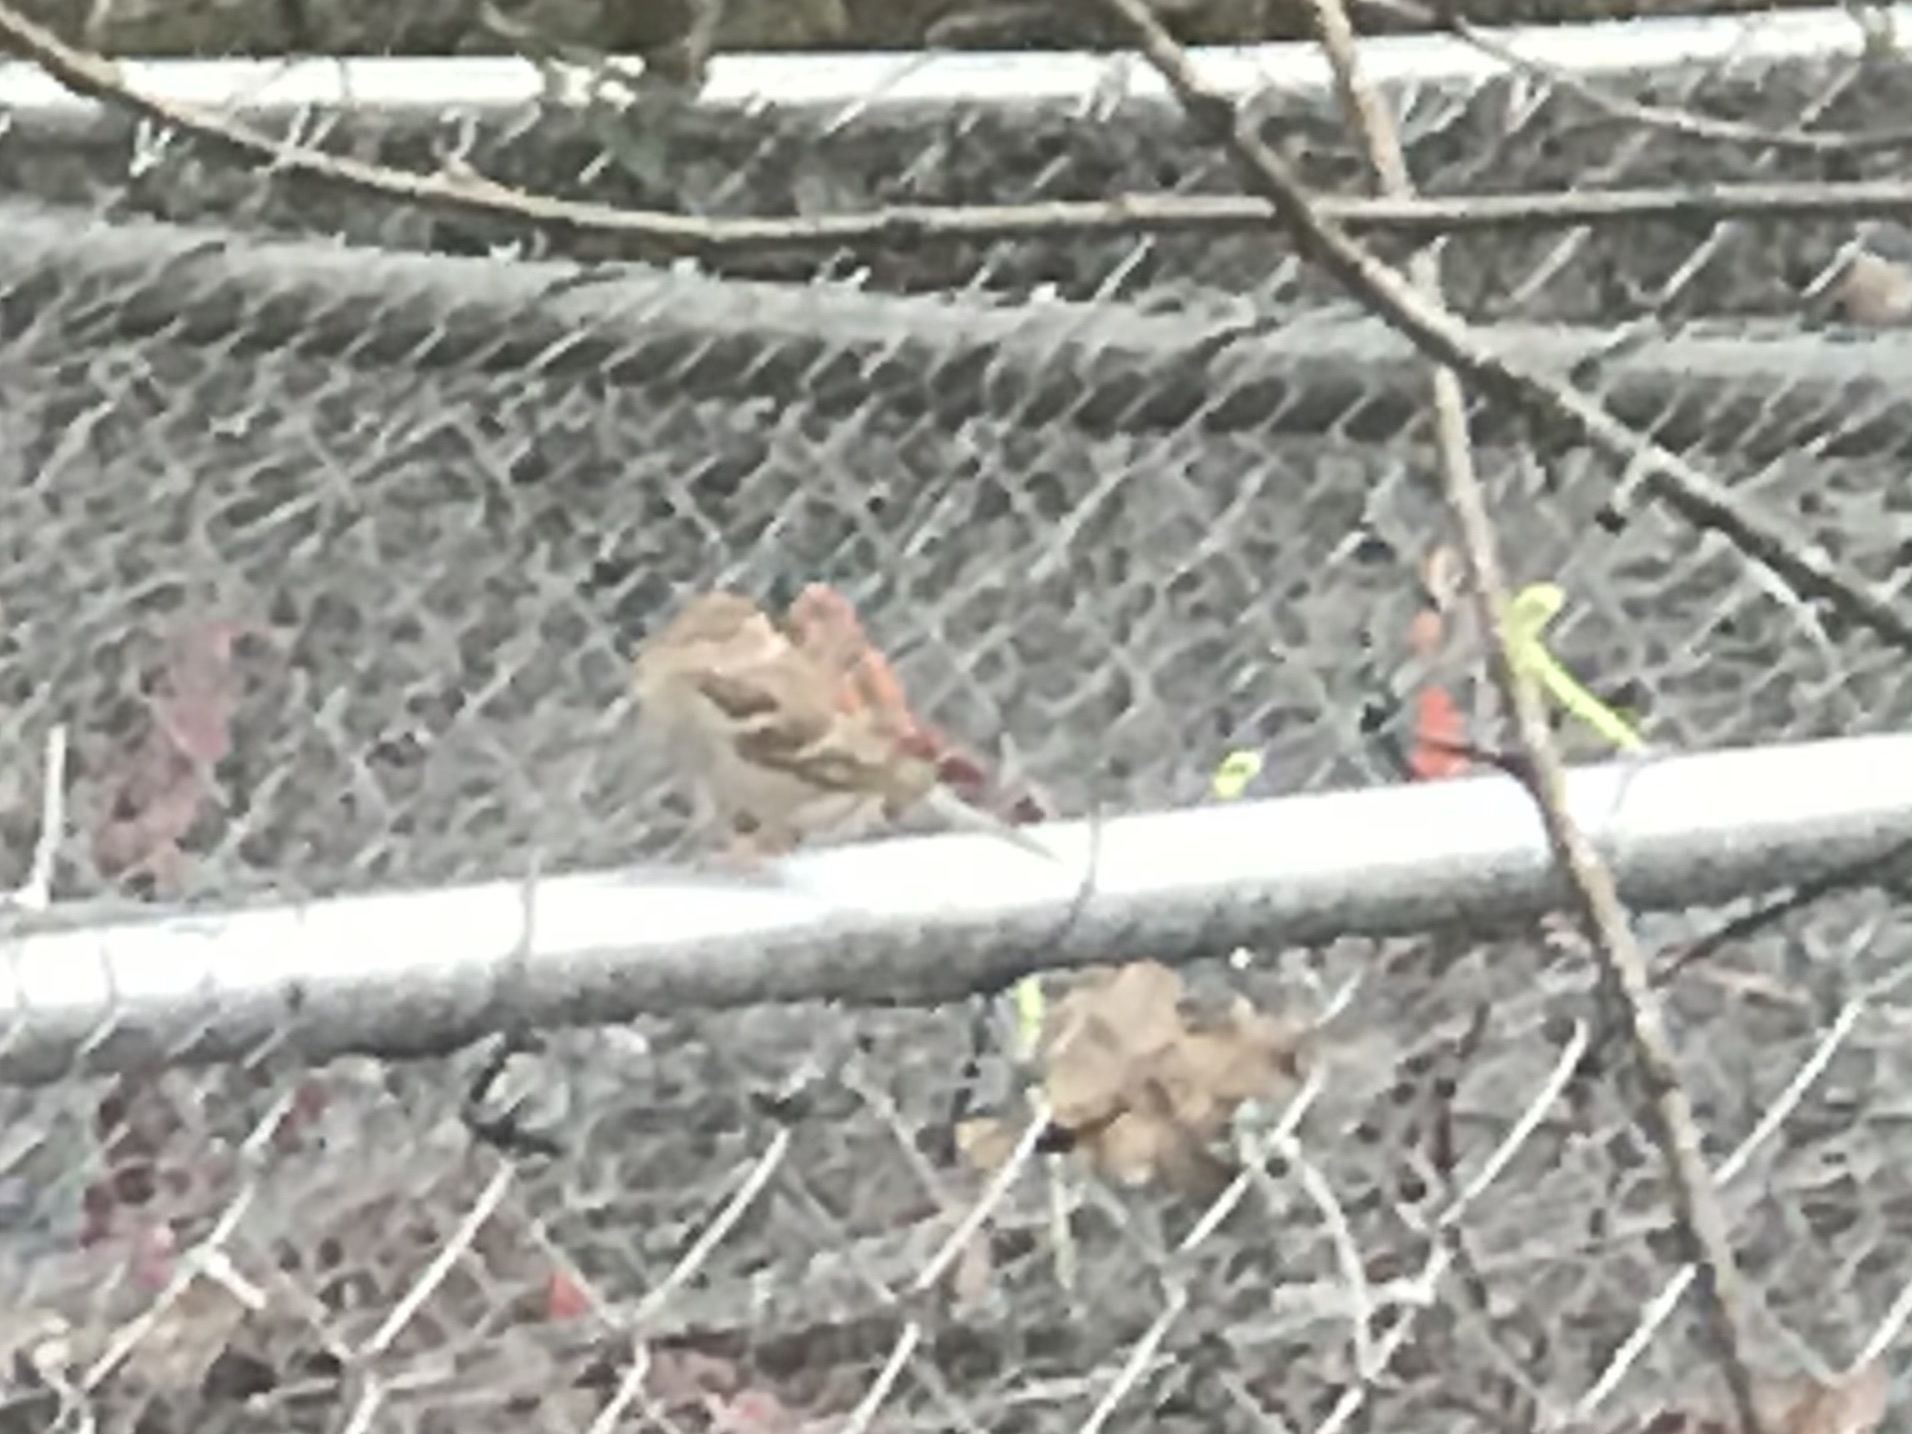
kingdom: Animalia
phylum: Chordata
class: Aves
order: Passeriformes
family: Fringillidae
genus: Haemorhous
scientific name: Haemorhous mexicanus
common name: House finch
